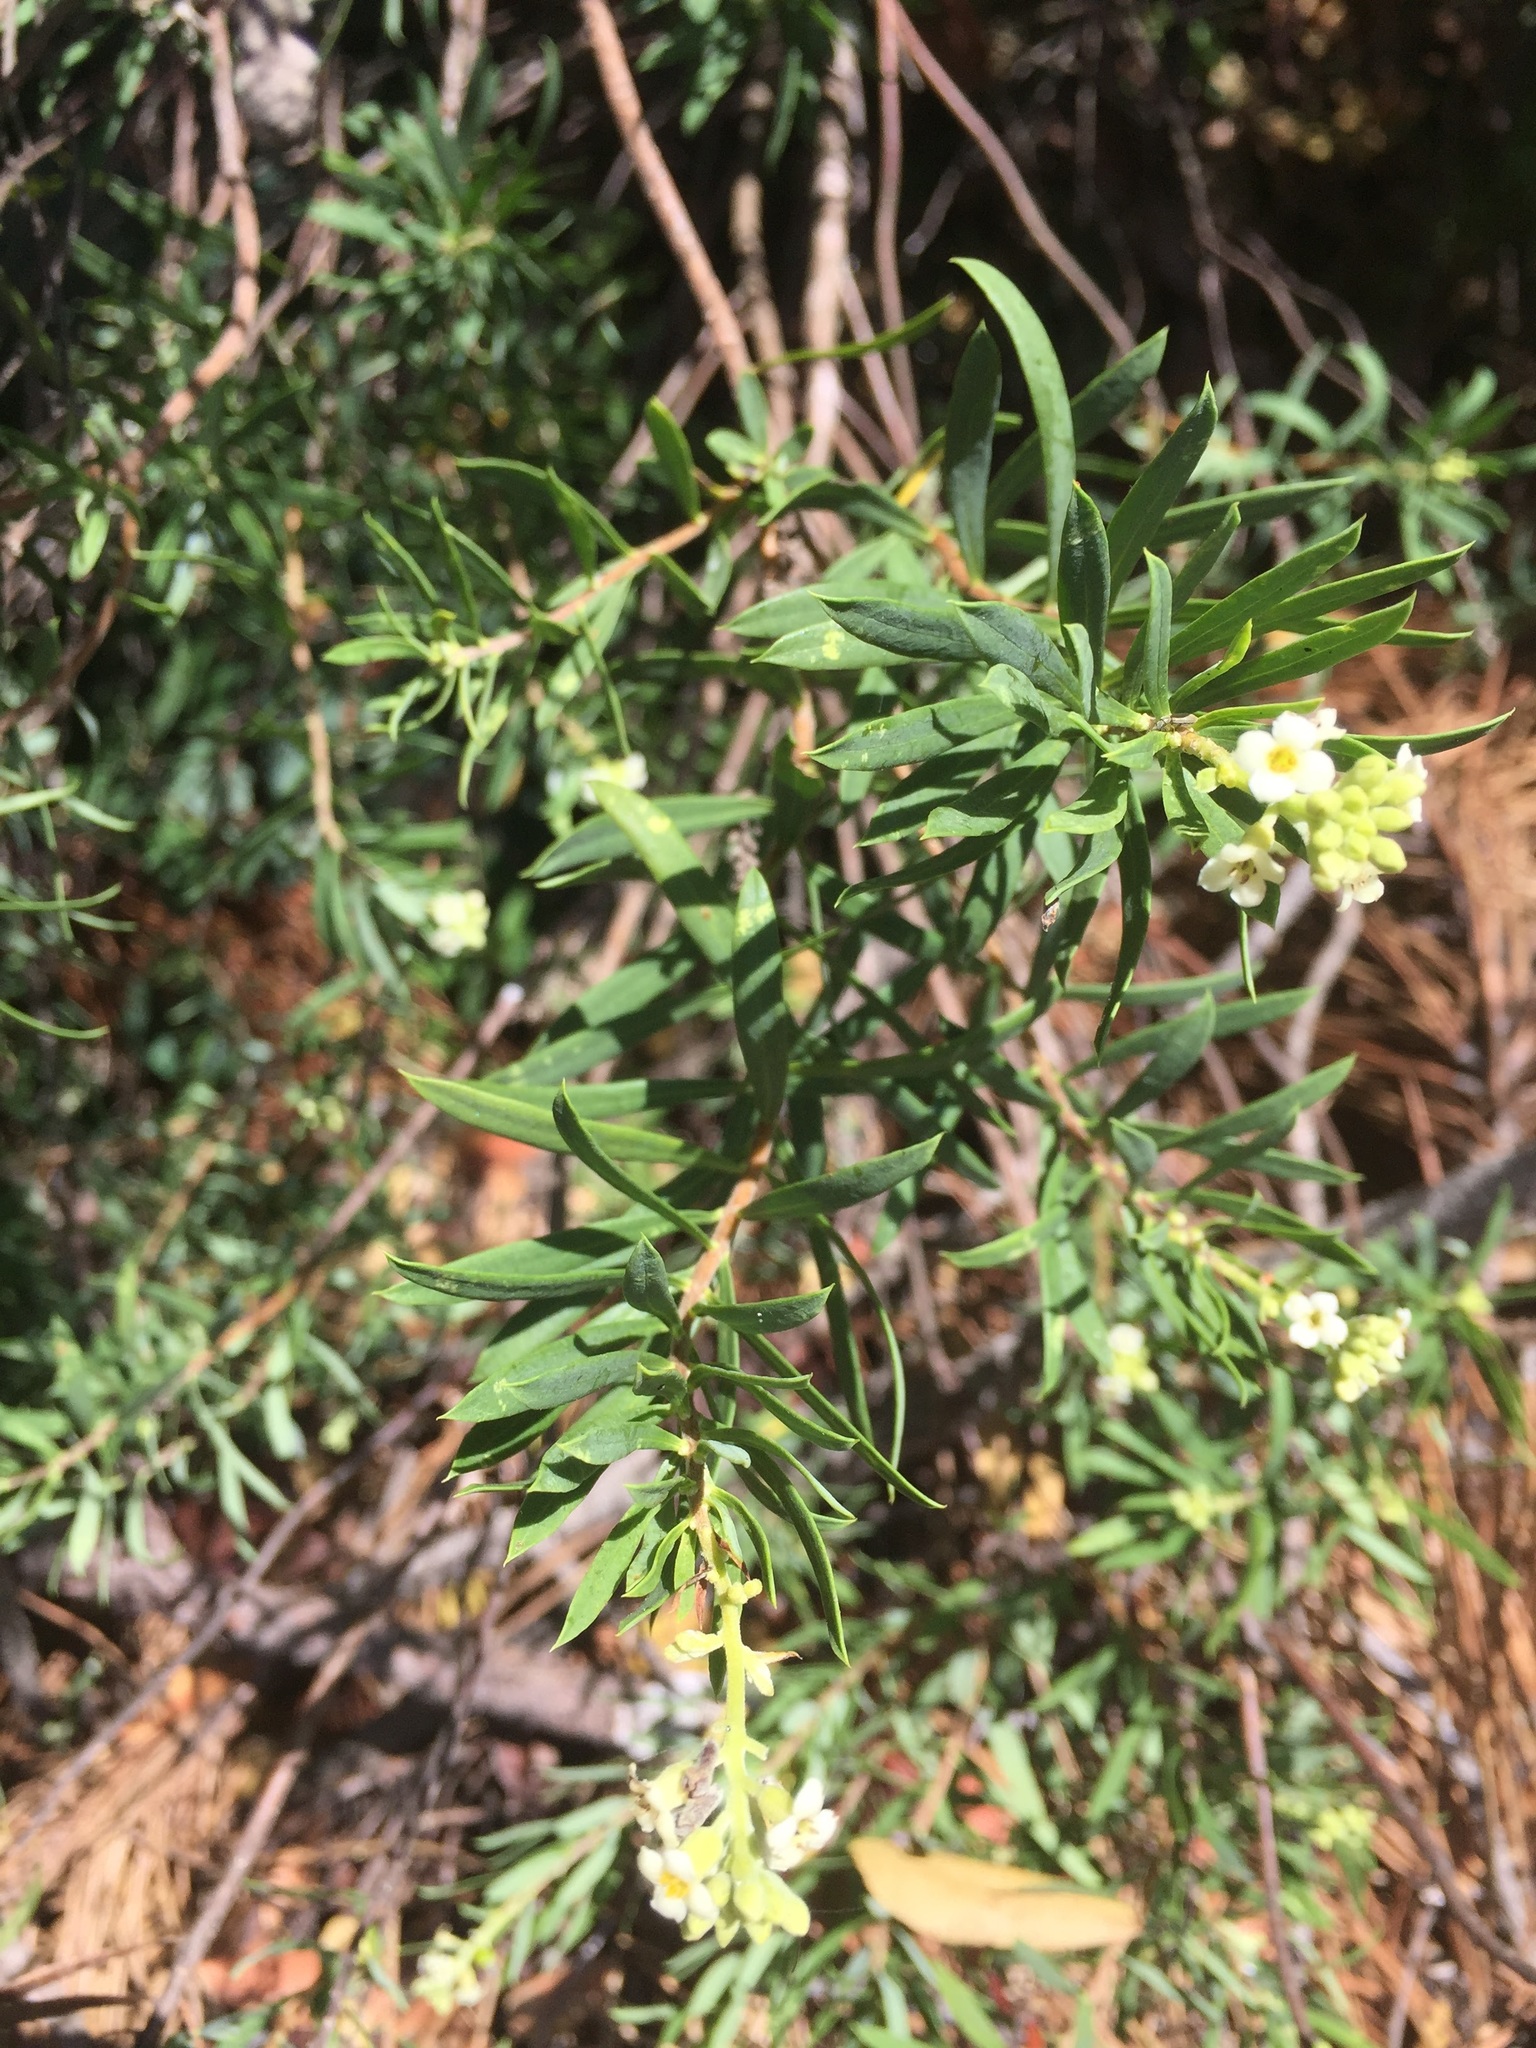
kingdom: Plantae
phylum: Tracheophyta
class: Magnoliopsida
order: Fabales
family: Fabaceae
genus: Cytisus
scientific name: Cytisus striatus
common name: Hairy-fruited broom
